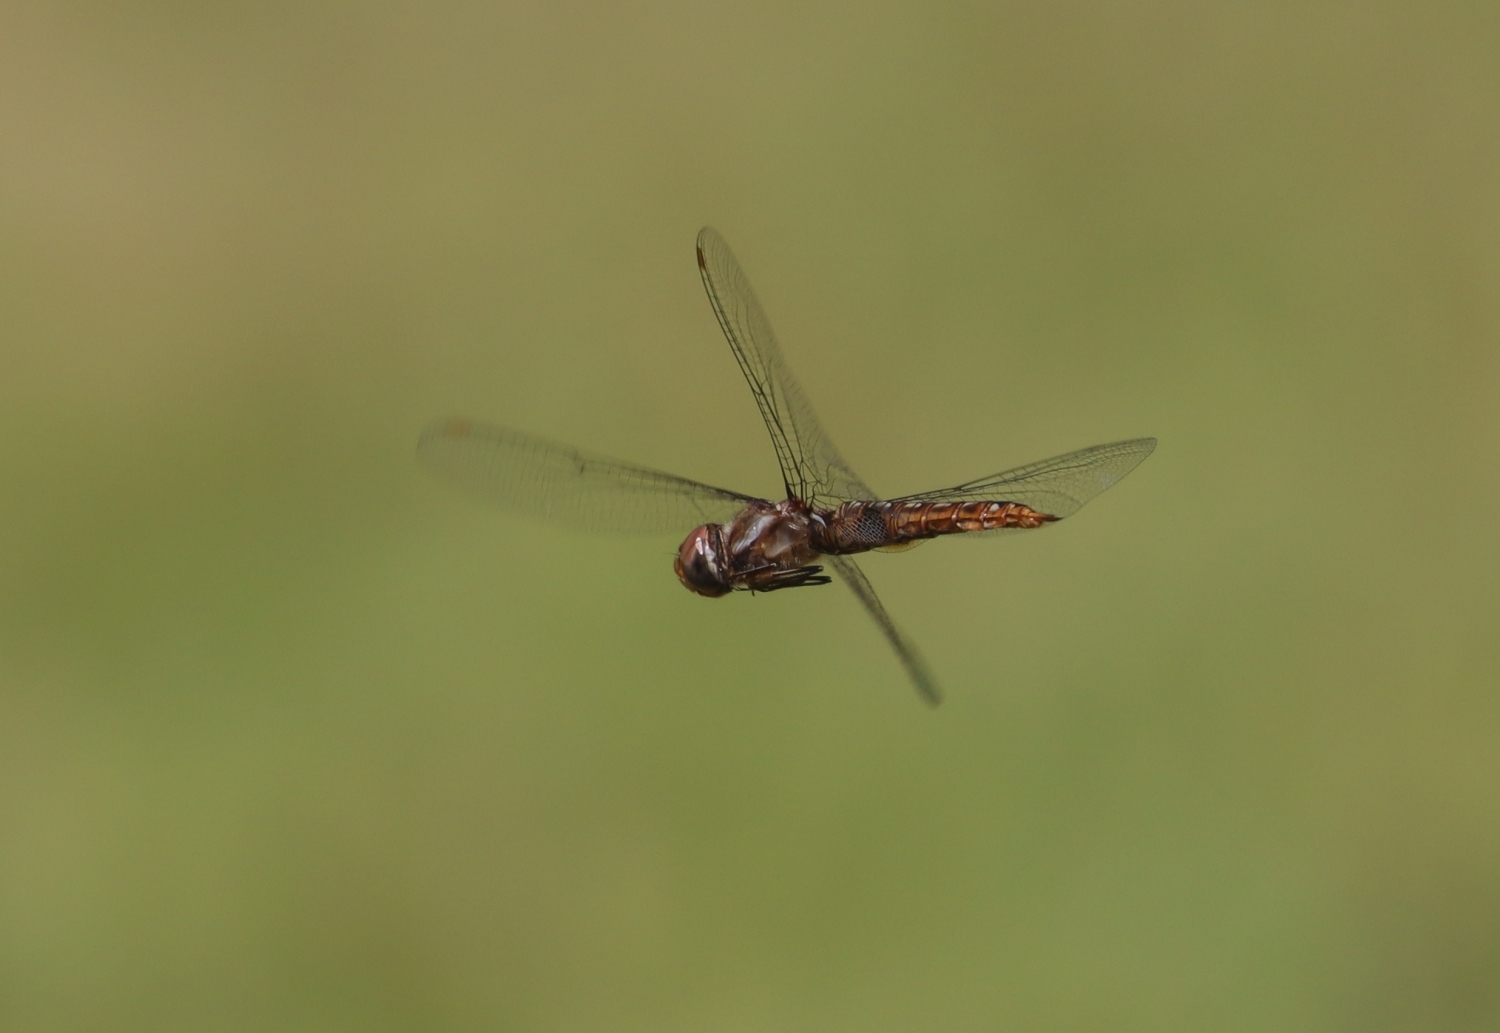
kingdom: Animalia
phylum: Arthropoda
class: Insecta
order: Odonata
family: Libellulidae
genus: Pantala
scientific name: Pantala hymenaea
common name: Spot-winged glider
